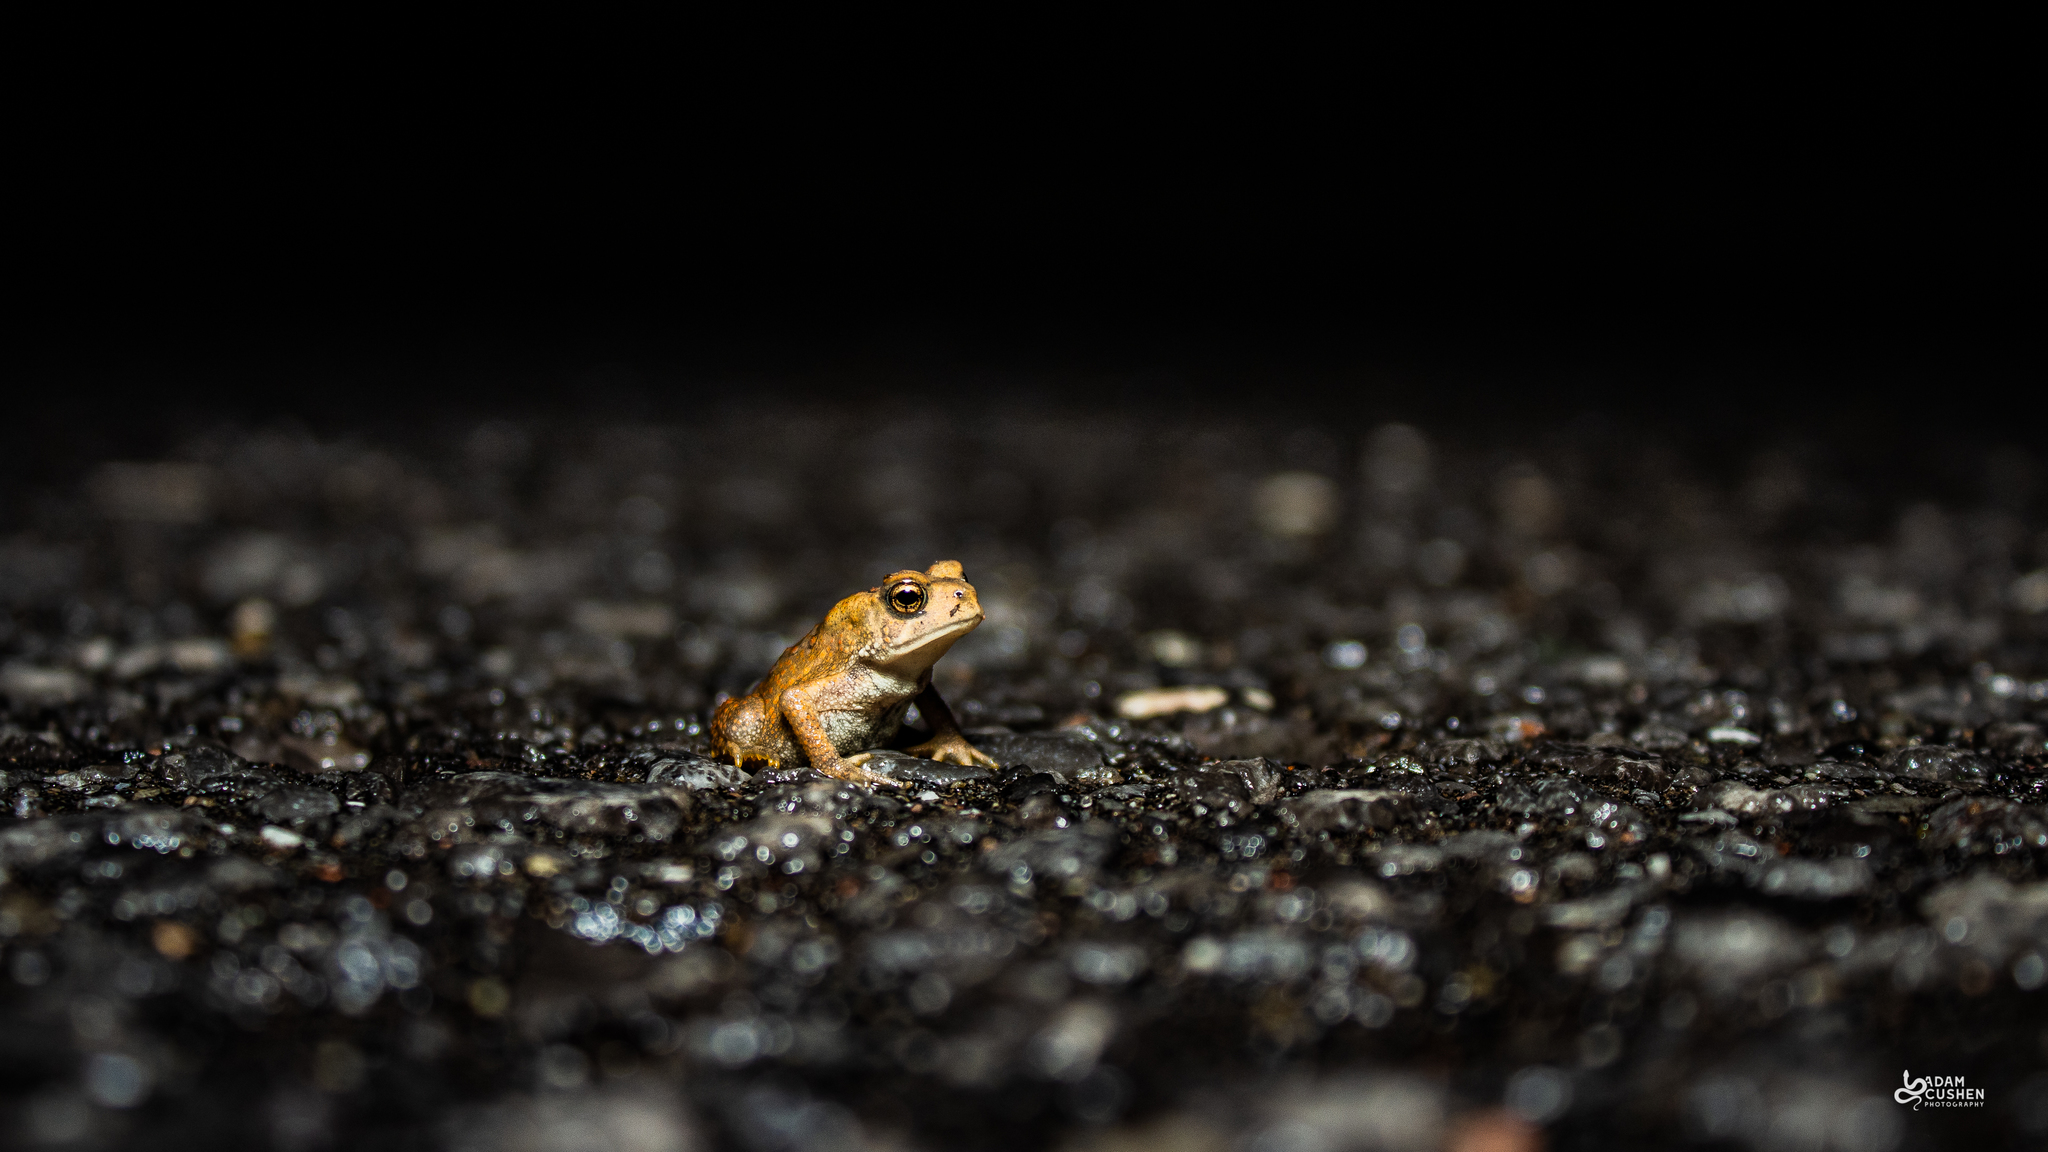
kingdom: Animalia
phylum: Chordata
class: Amphibia
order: Anura
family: Bufonidae
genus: Anaxyrus
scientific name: Anaxyrus americanus
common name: American toad
